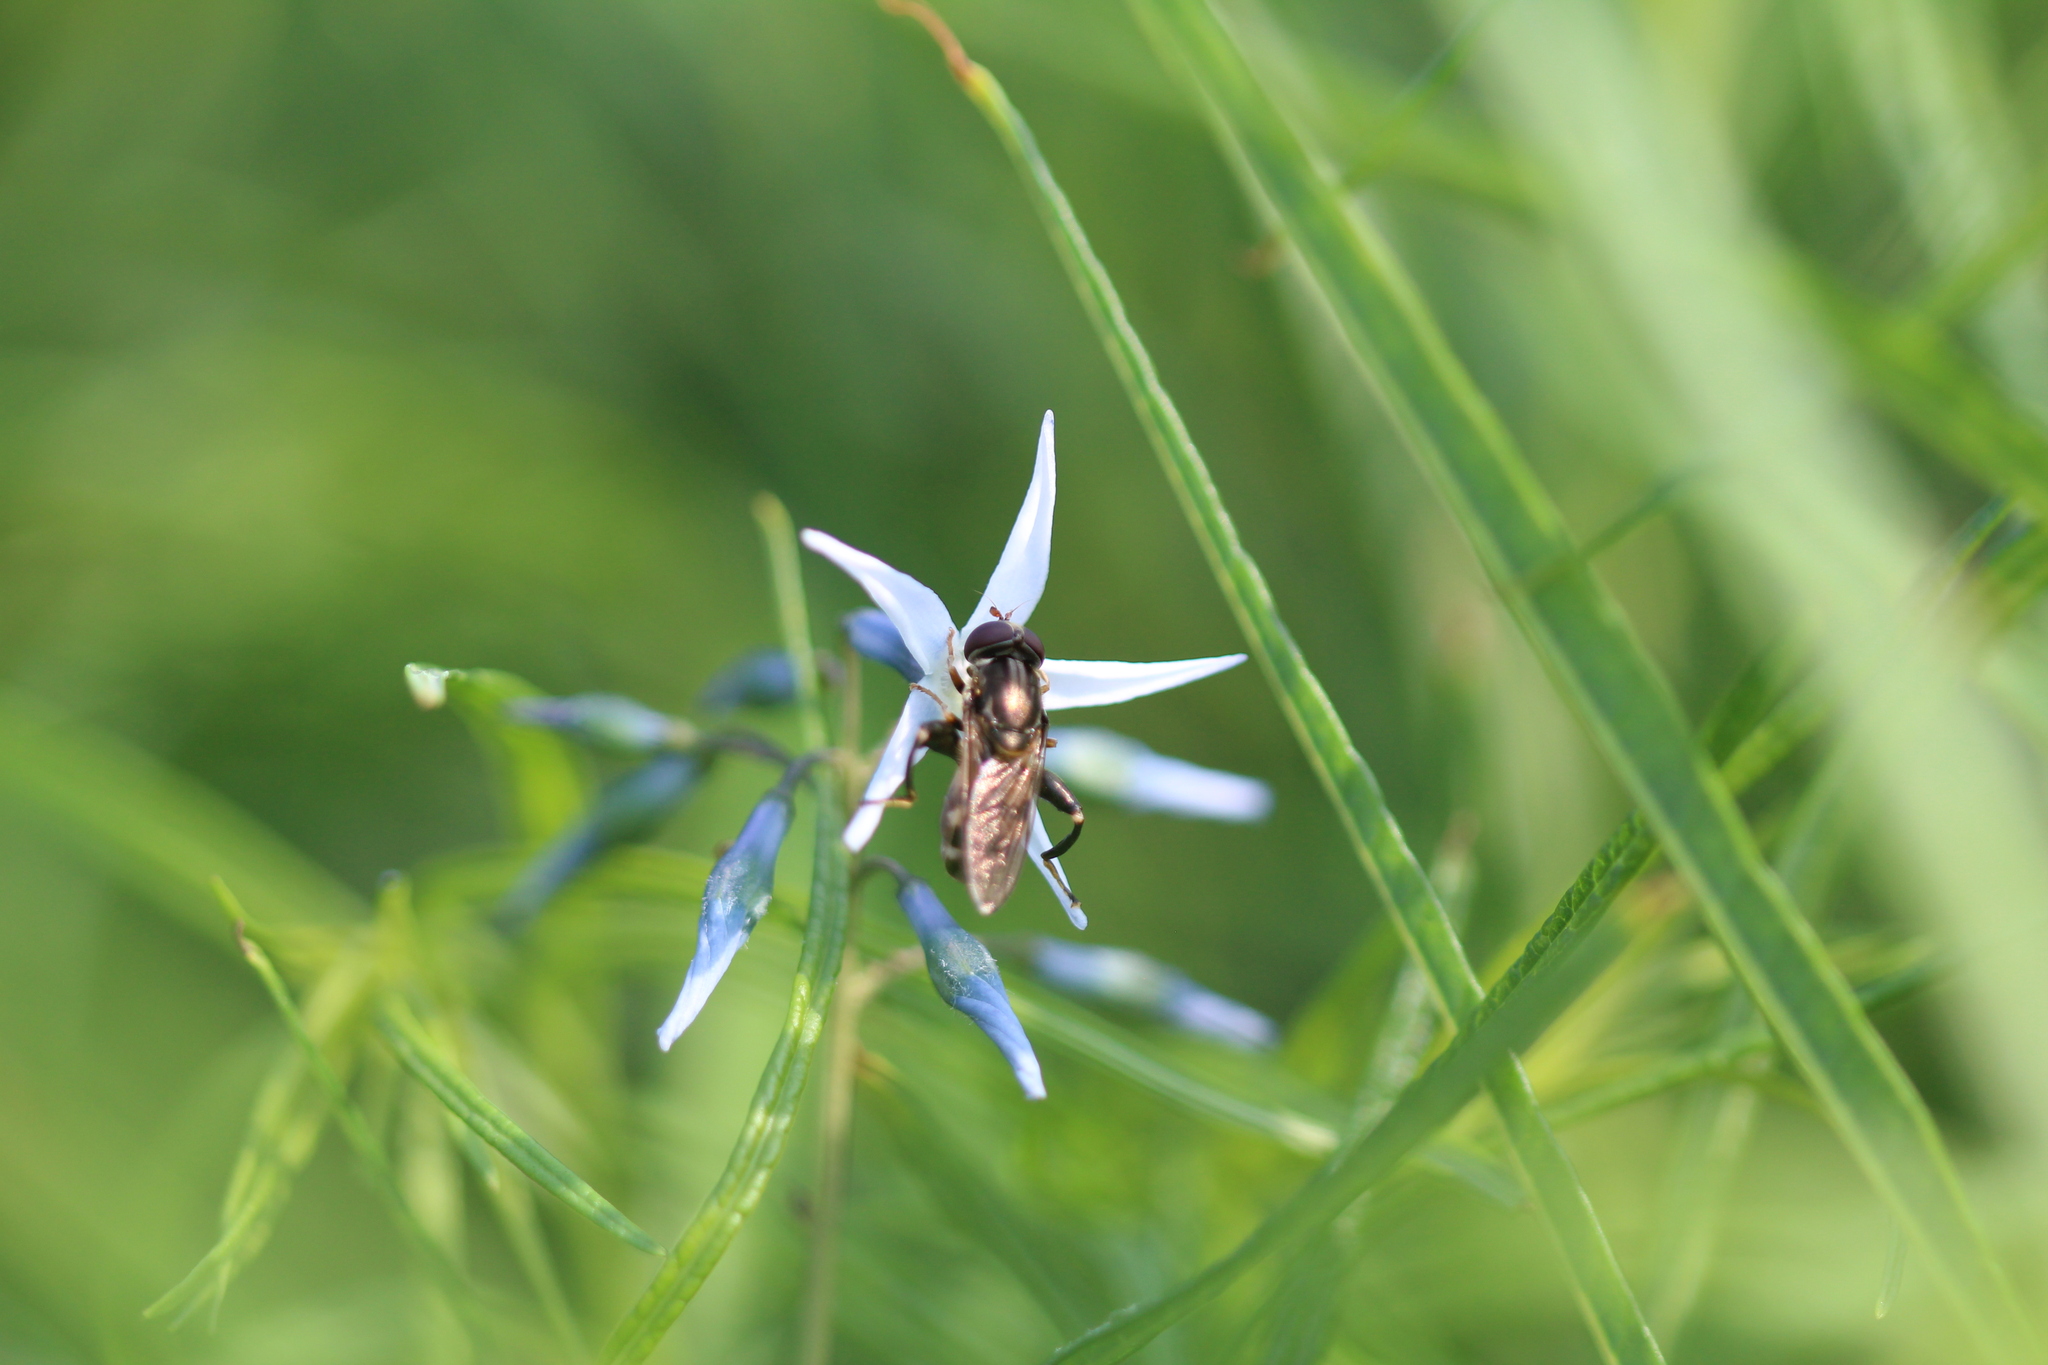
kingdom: Animalia
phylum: Arthropoda
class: Insecta
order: Diptera
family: Syrphidae
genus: Tropidia
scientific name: Tropidia quadrata
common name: Common thick-legged fly
